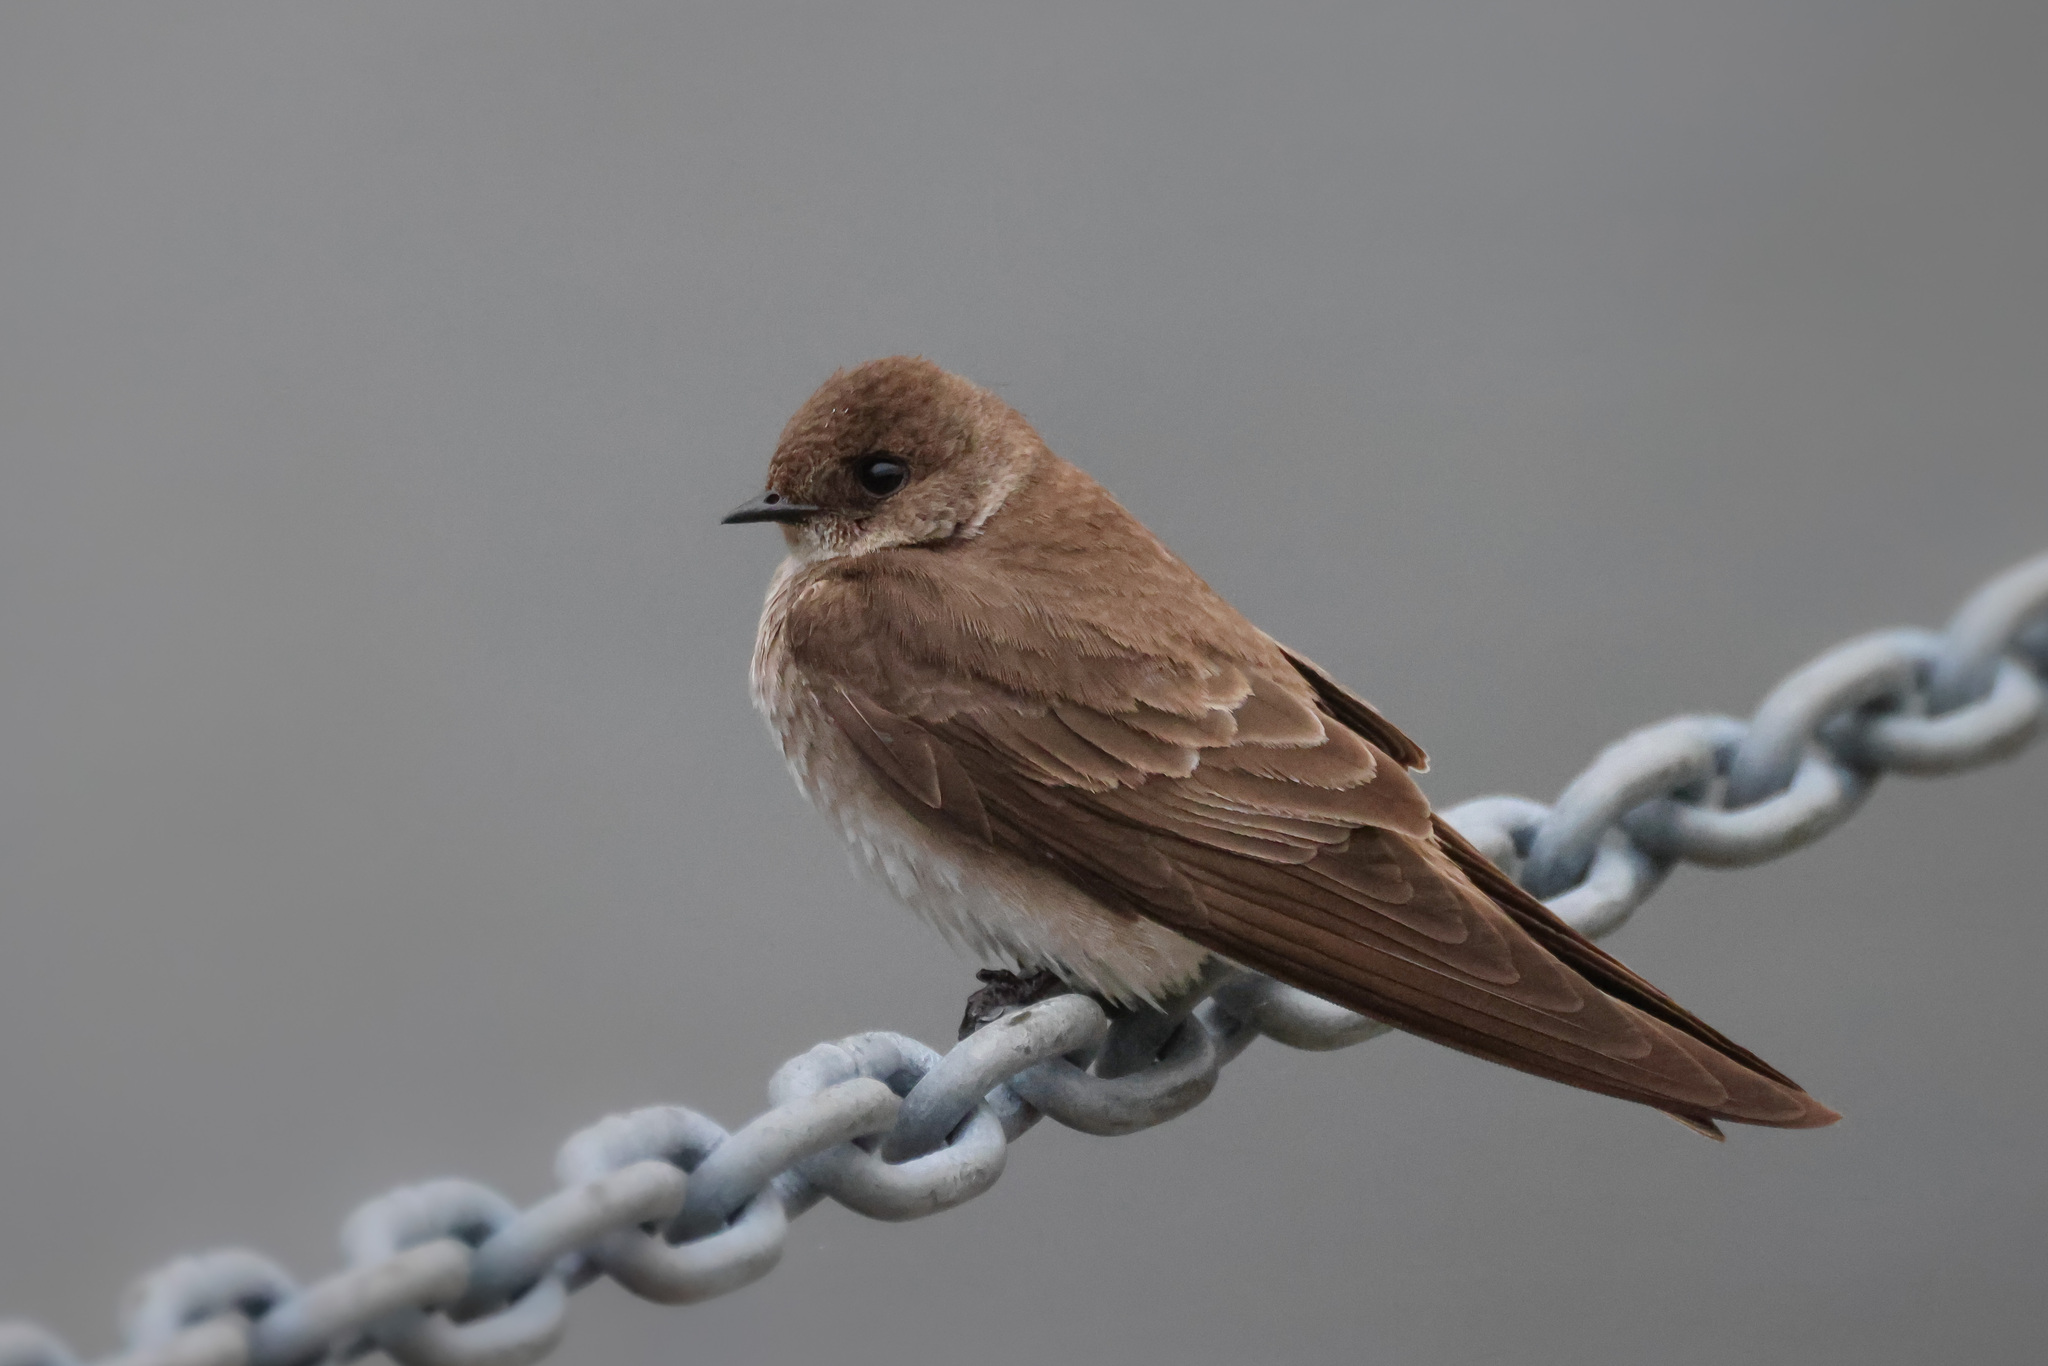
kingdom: Animalia
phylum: Chordata
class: Aves
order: Passeriformes
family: Hirundinidae
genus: Stelgidopteryx
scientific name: Stelgidopteryx serripennis
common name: Northern rough-winged swallow
